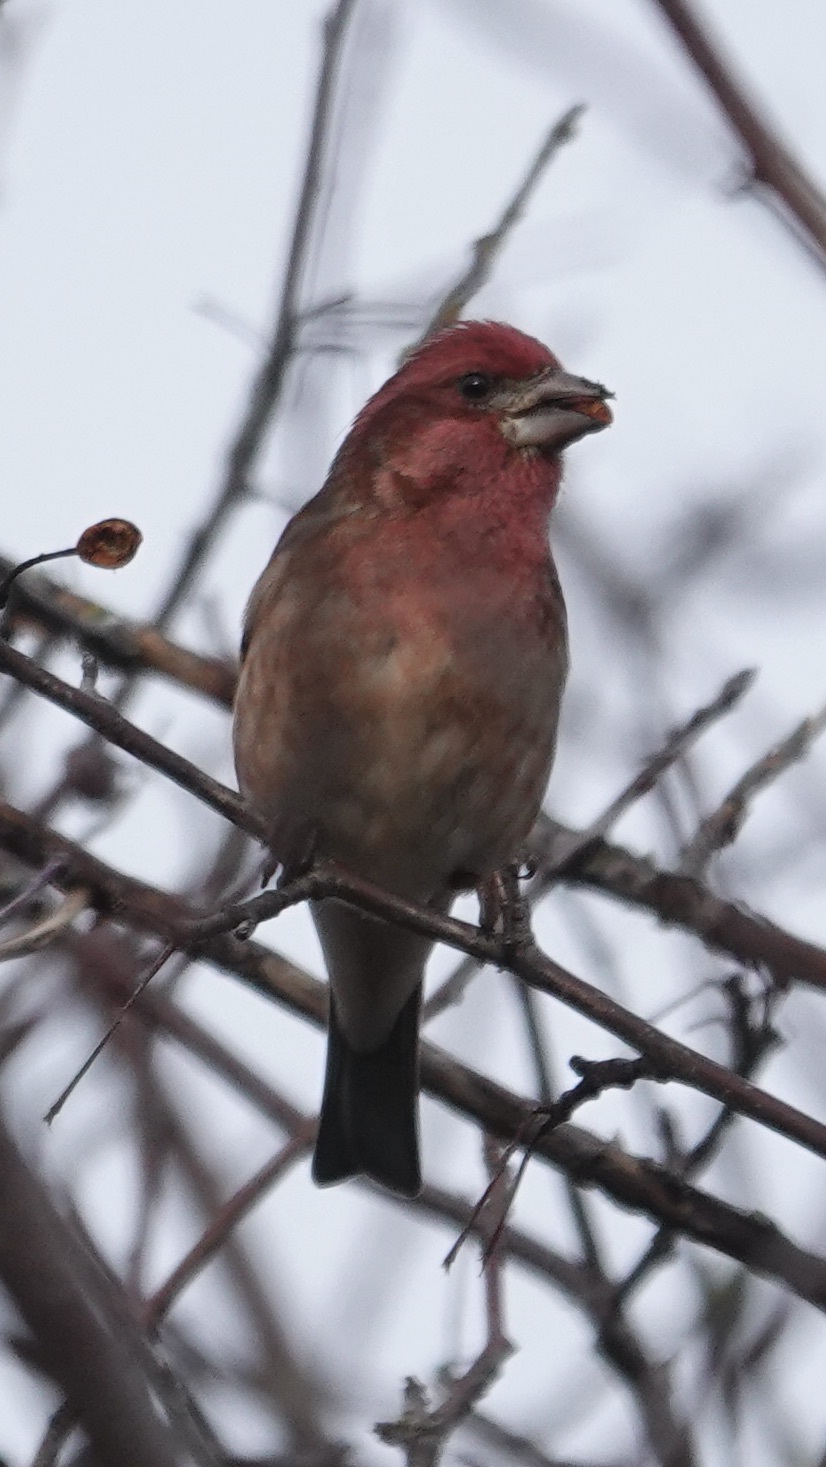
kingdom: Animalia
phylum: Chordata
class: Aves
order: Passeriformes
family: Fringillidae
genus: Haemorhous
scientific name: Haemorhous purpureus
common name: Purple finch
